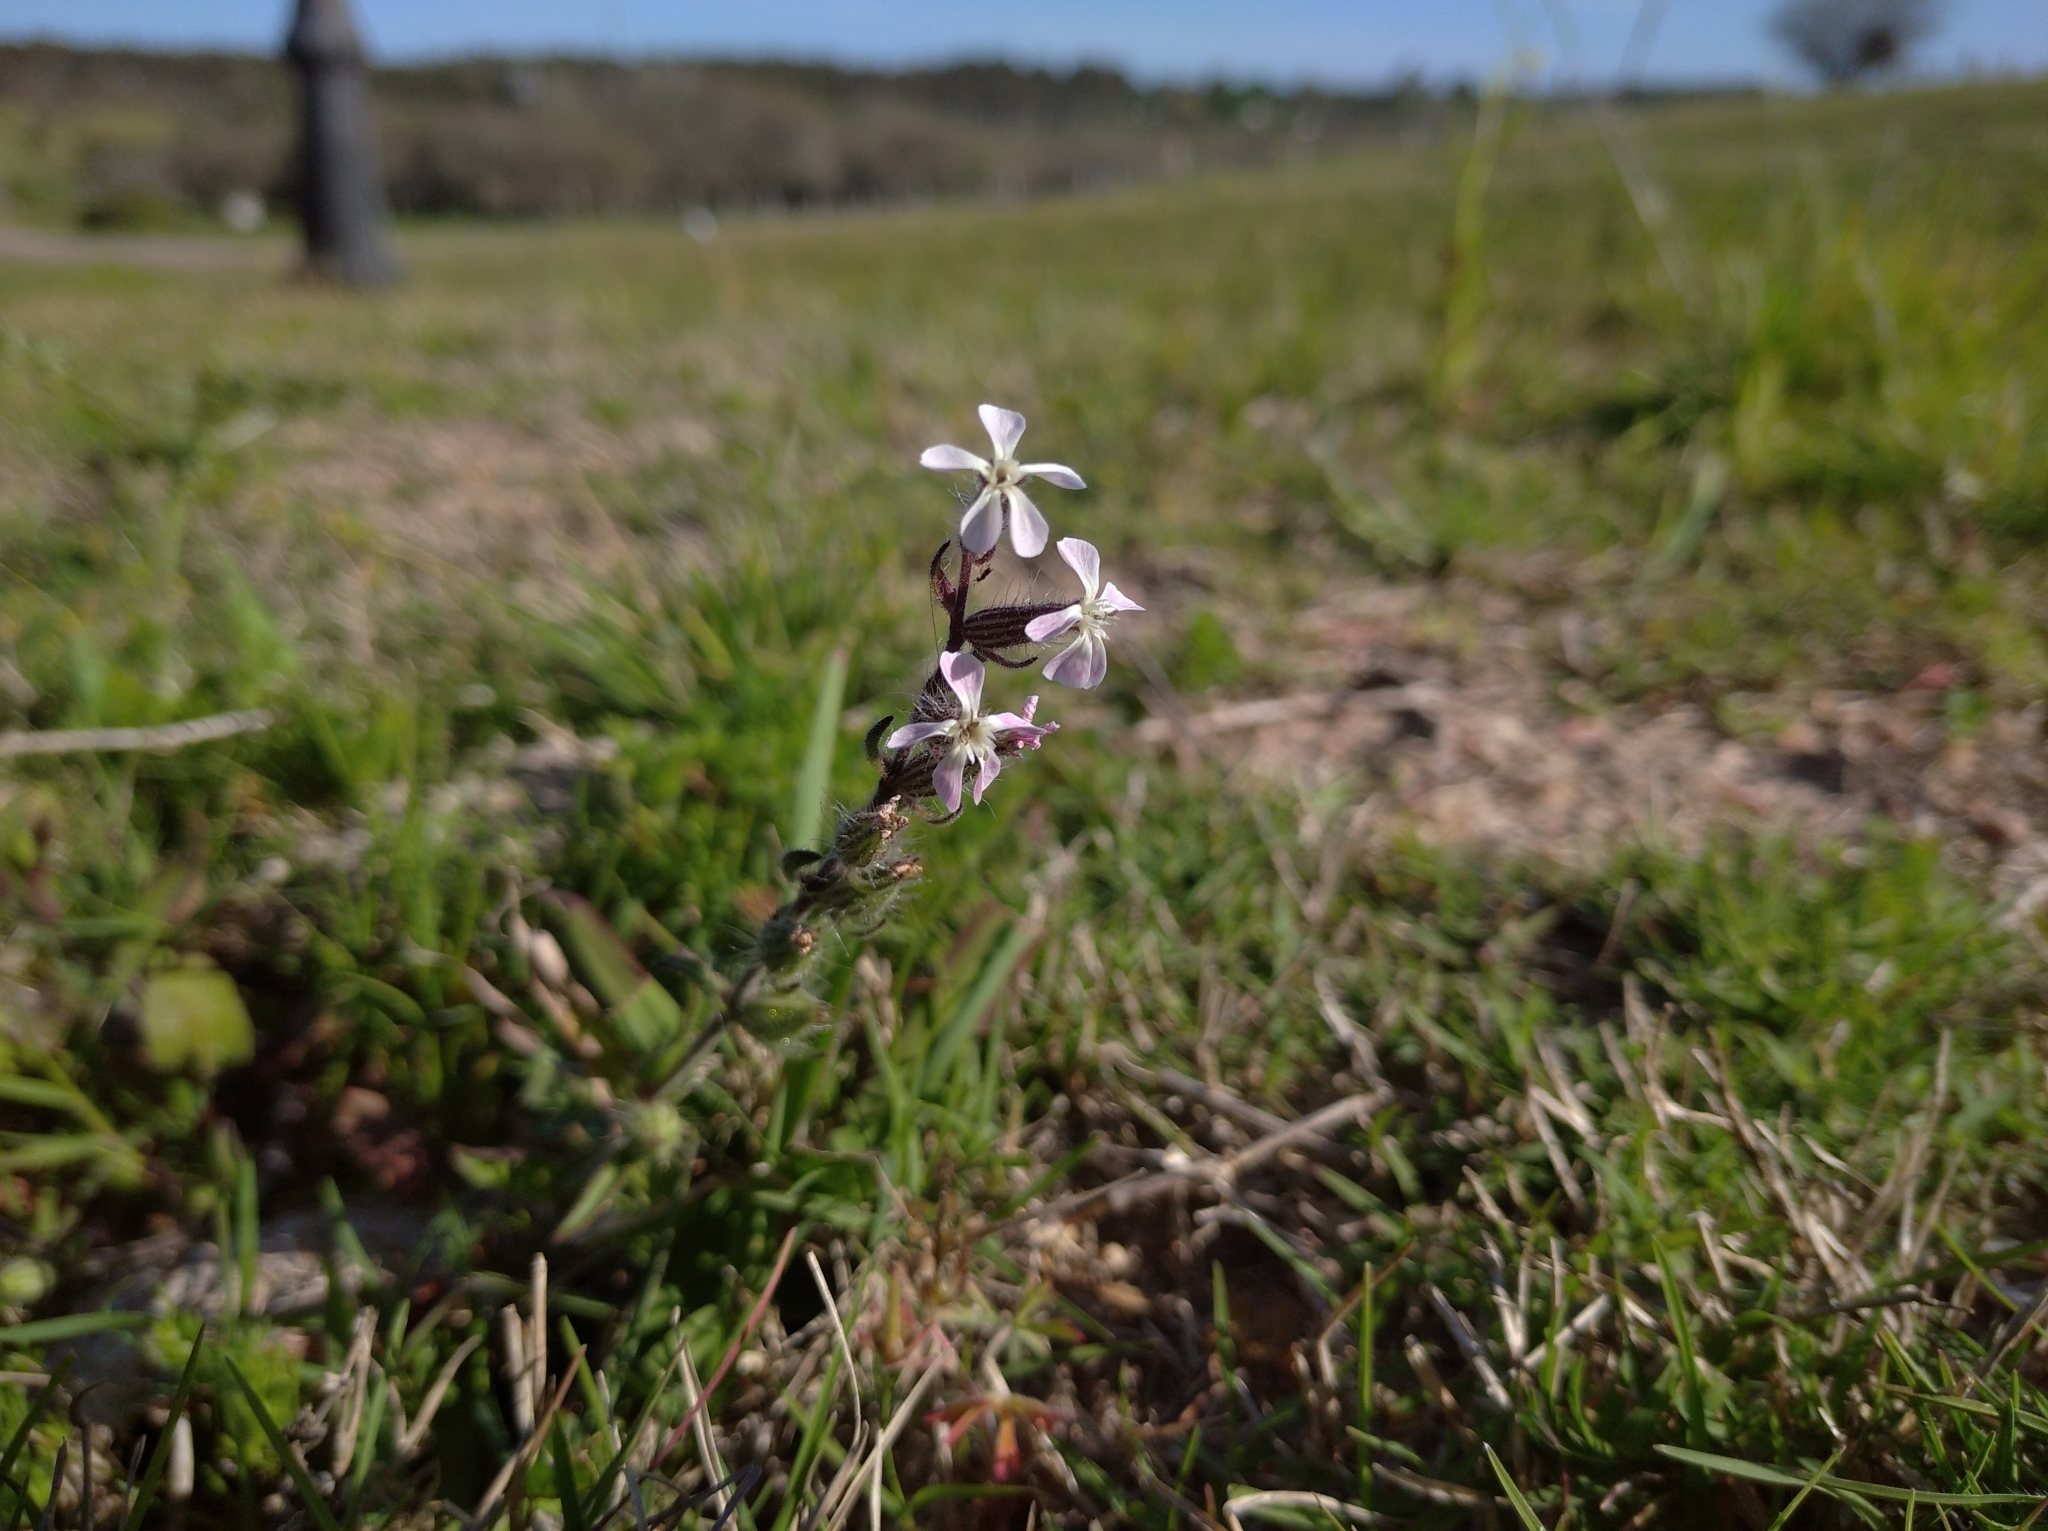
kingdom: Plantae
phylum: Tracheophyta
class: Magnoliopsida
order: Caryophyllales
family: Caryophyllaceae
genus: Silene
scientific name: Silene gallica
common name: Small-flowered catchfly
